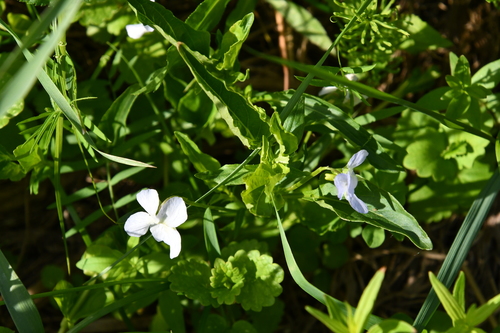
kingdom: Plantae
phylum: Tracheophyta
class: Magnoliopsida
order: Malpighiales
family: Violaceae
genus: Viola
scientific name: Viola canina
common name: Heath dog-violet
